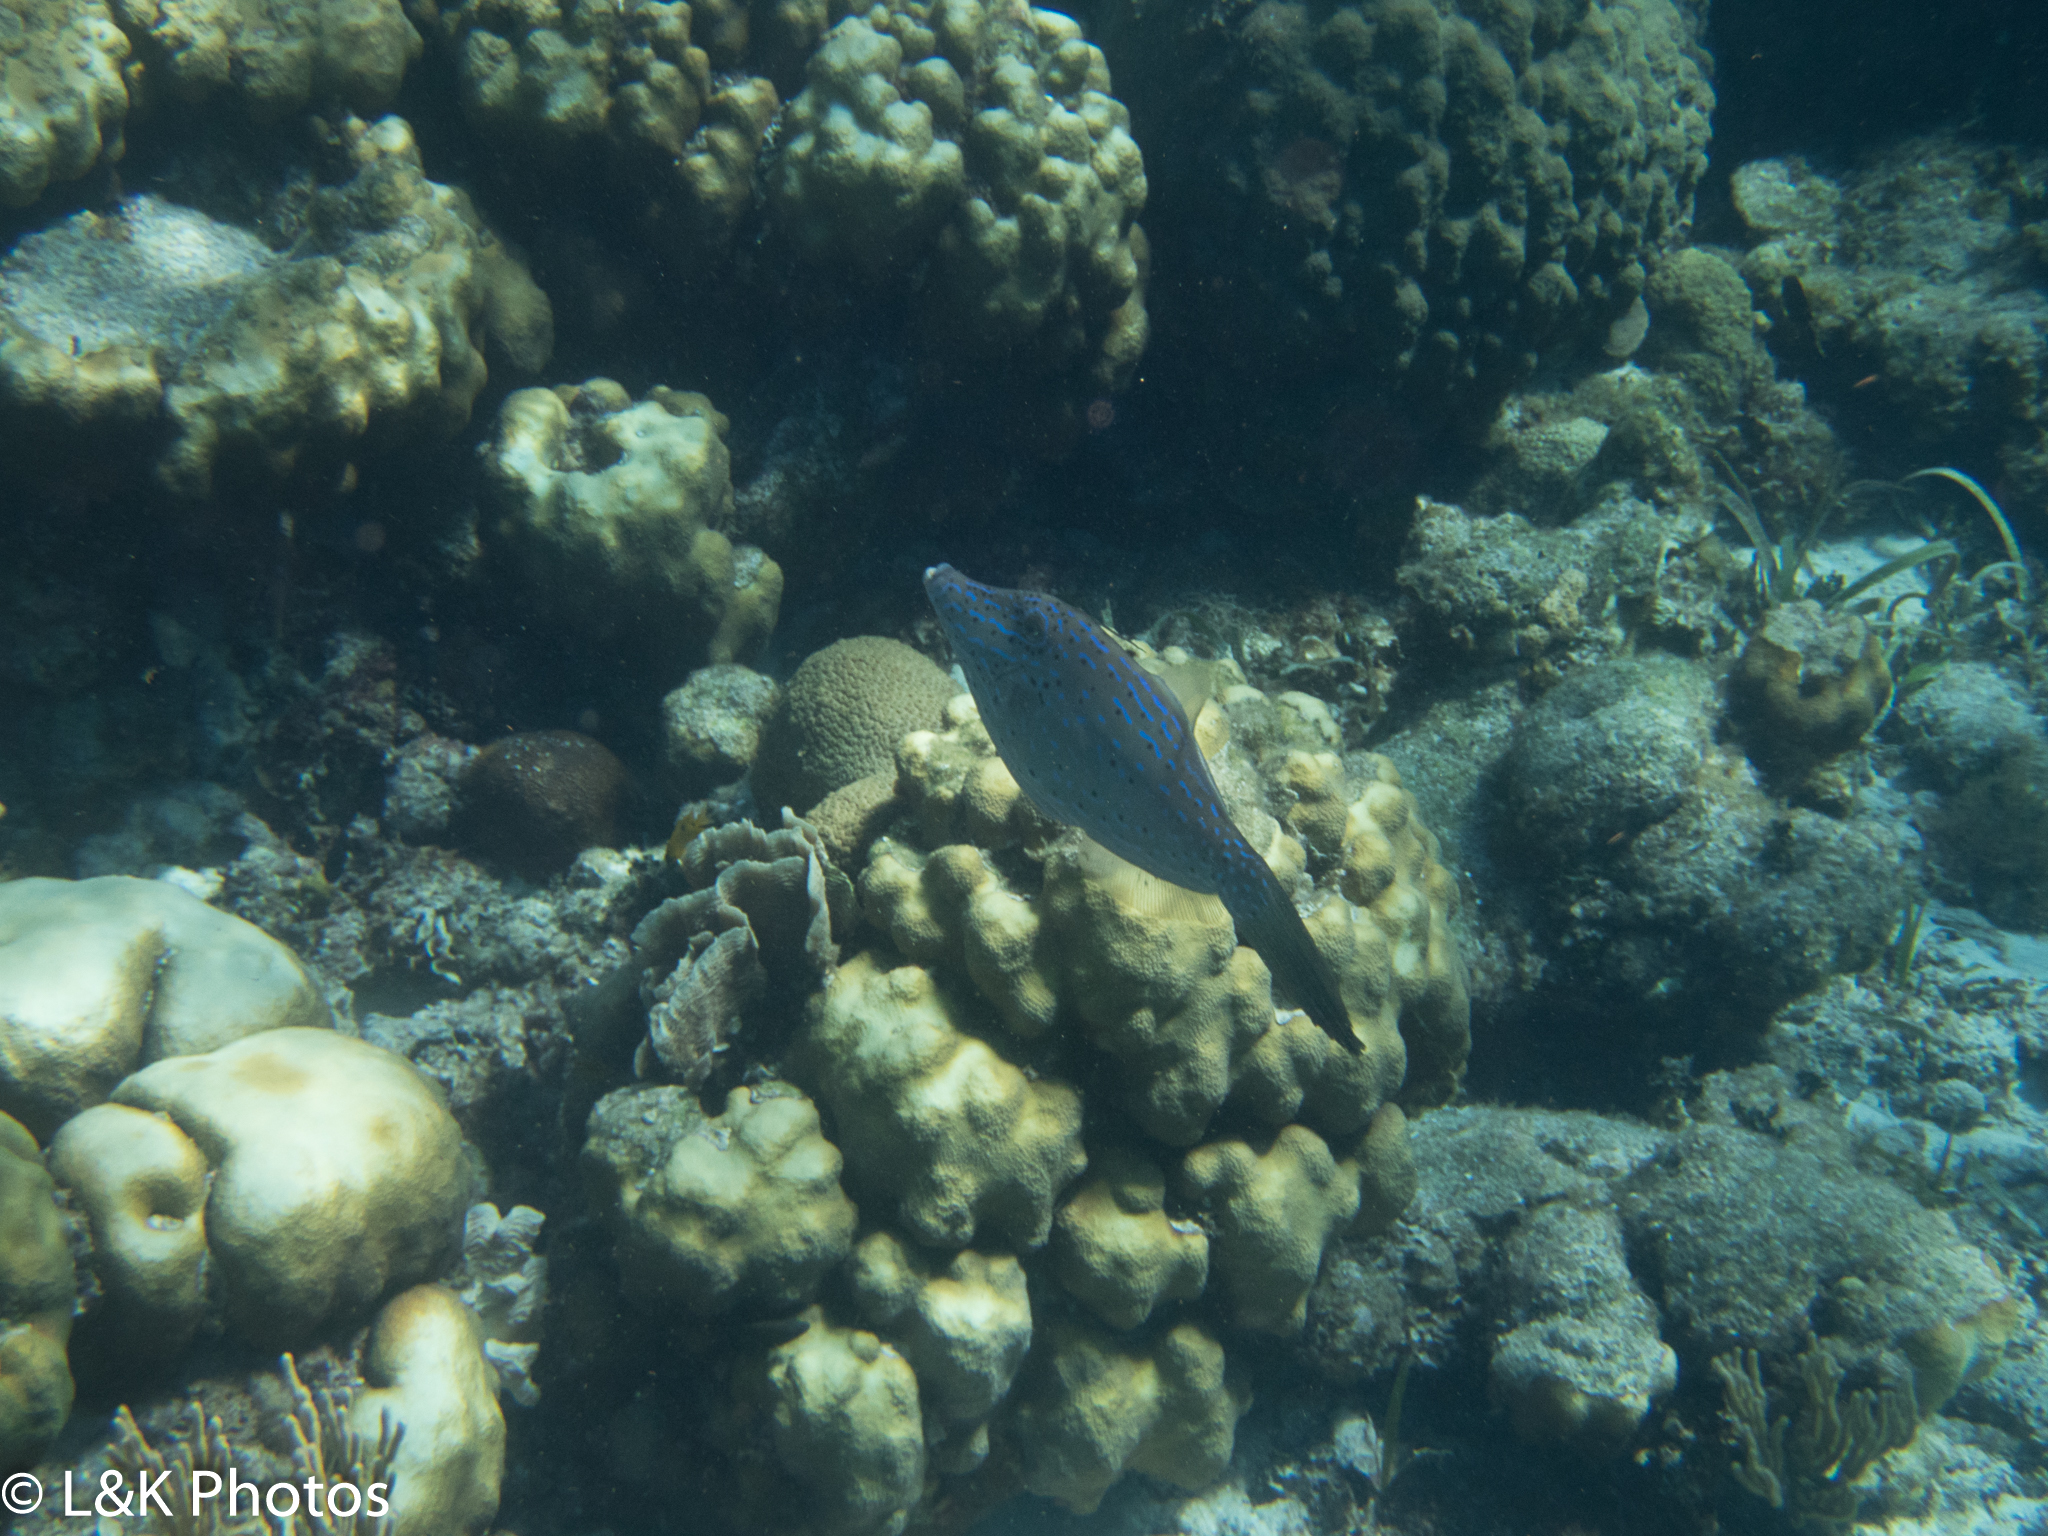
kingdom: Animalia
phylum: Chordata
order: Tetraodontiformes
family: Monacanthidae
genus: Aluterus
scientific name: Aluterus scriptus
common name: Scribbled leatherjacket filefish
